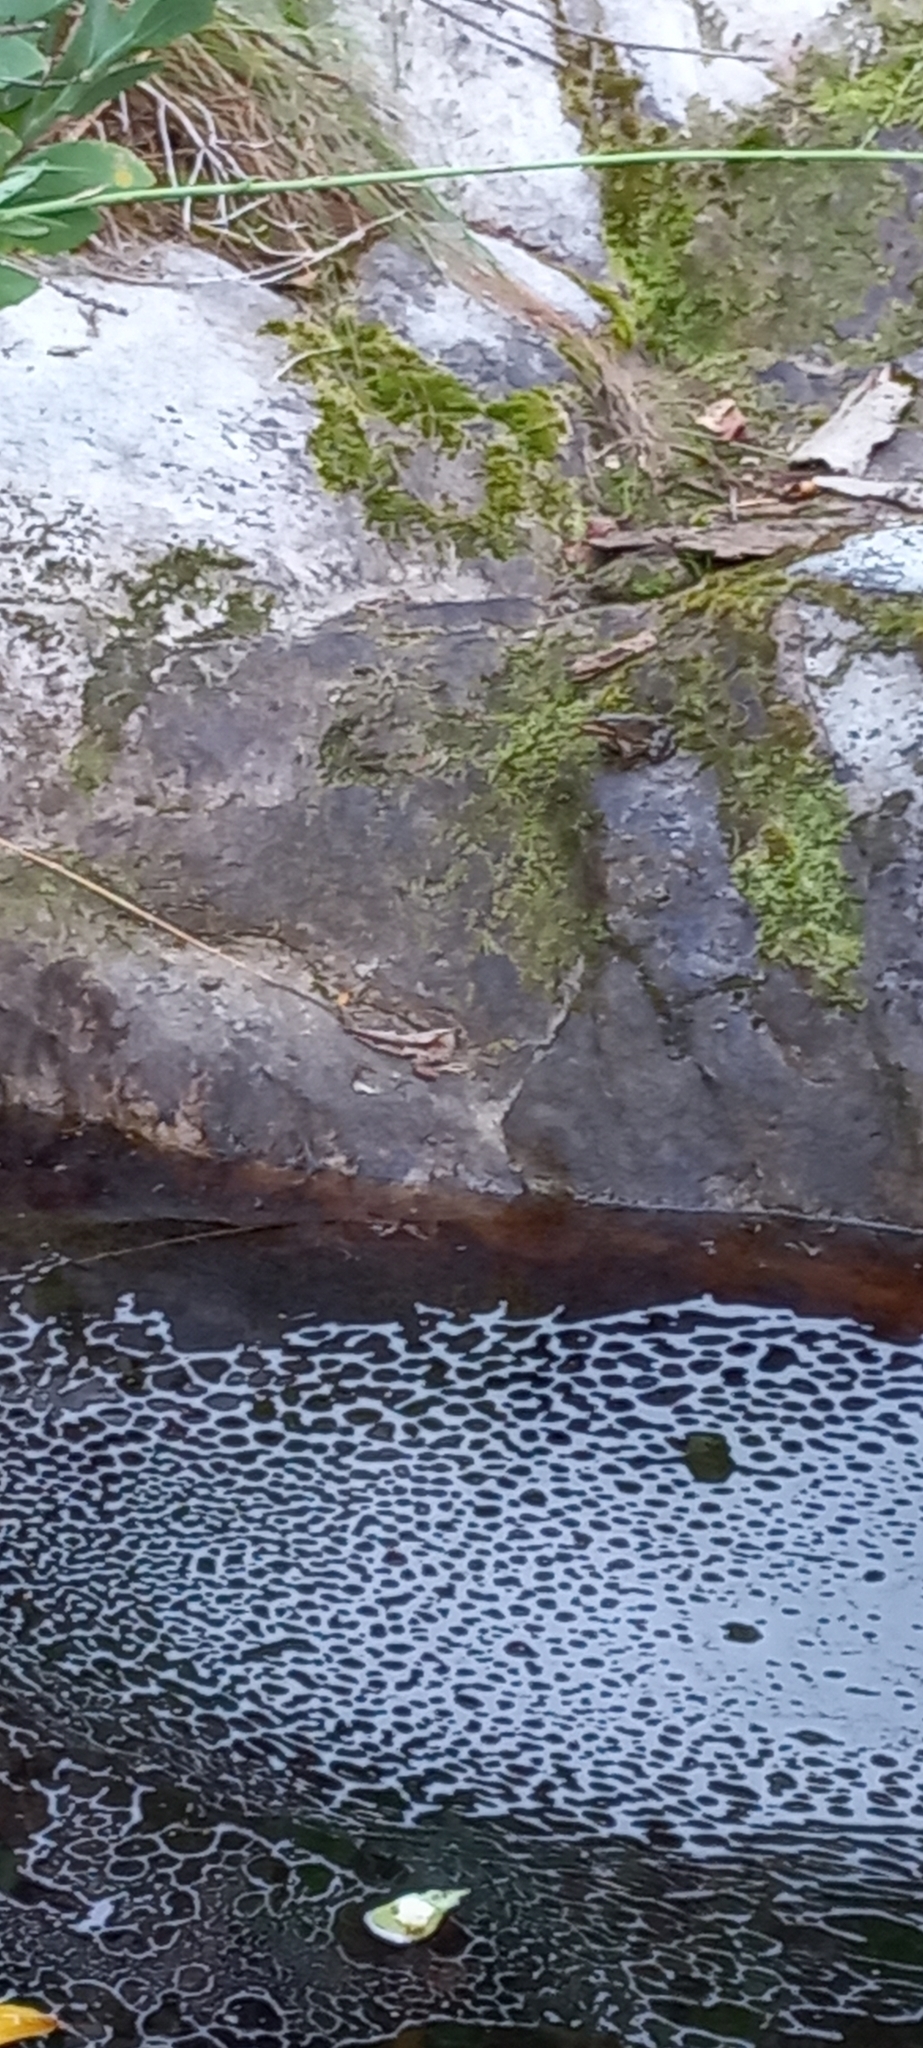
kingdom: Animalia
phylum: Chordata
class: Amphibia
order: Anura
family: Pyxicephalidae
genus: Amietia
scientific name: Amietia fuscigula
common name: Cape rana
